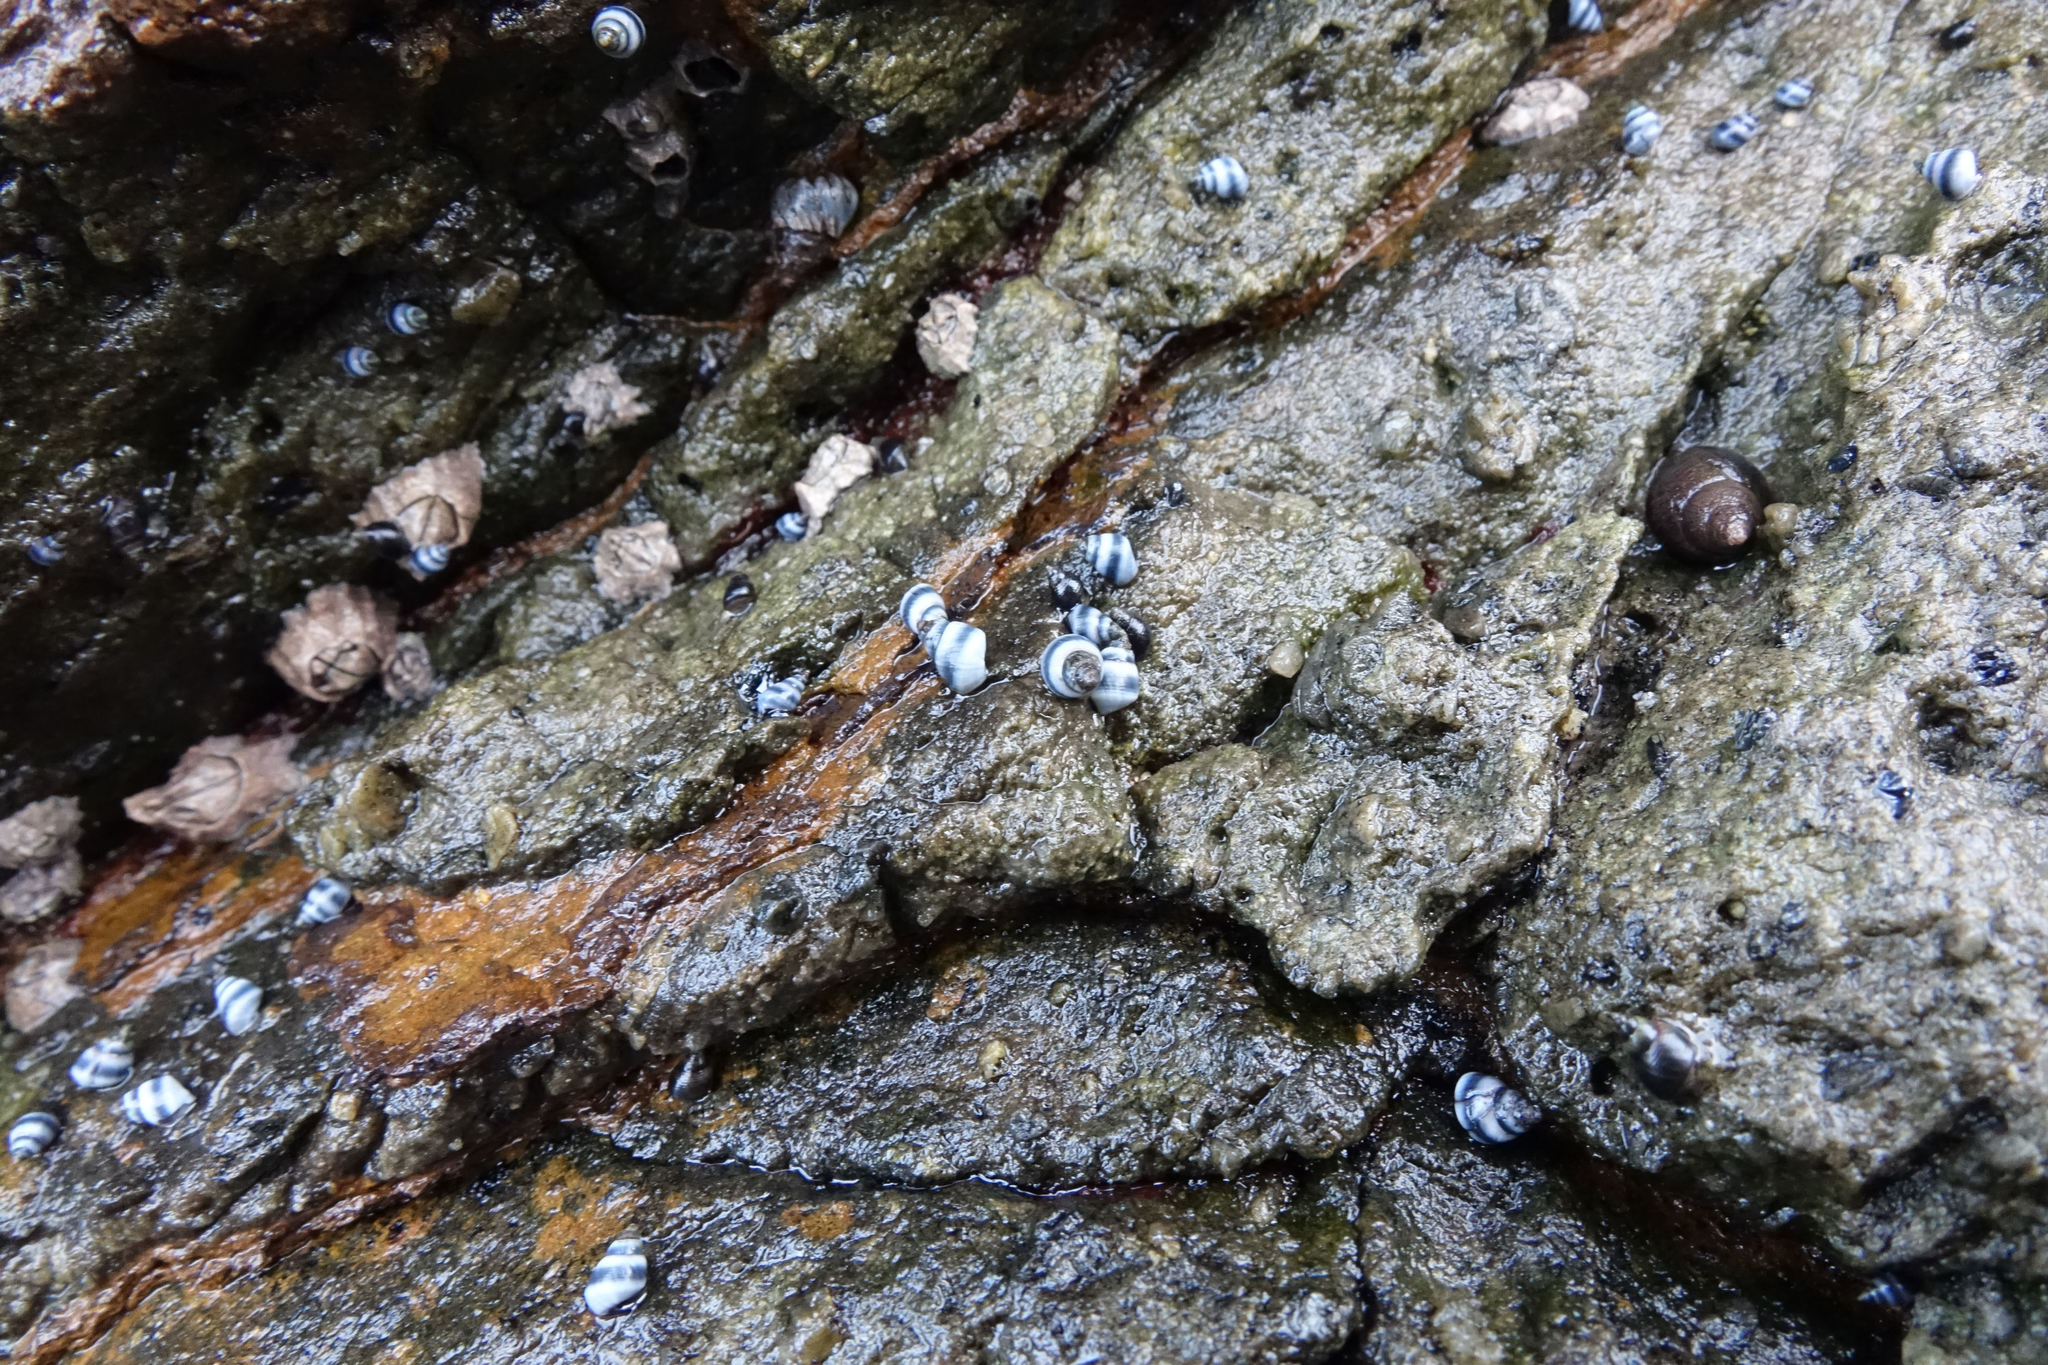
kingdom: Animalia
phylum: Mollusca
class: Gastropoda
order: Littorinimorpha
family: Littorinidae
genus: Austrolittorina
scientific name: Austrolittorina antipodum
